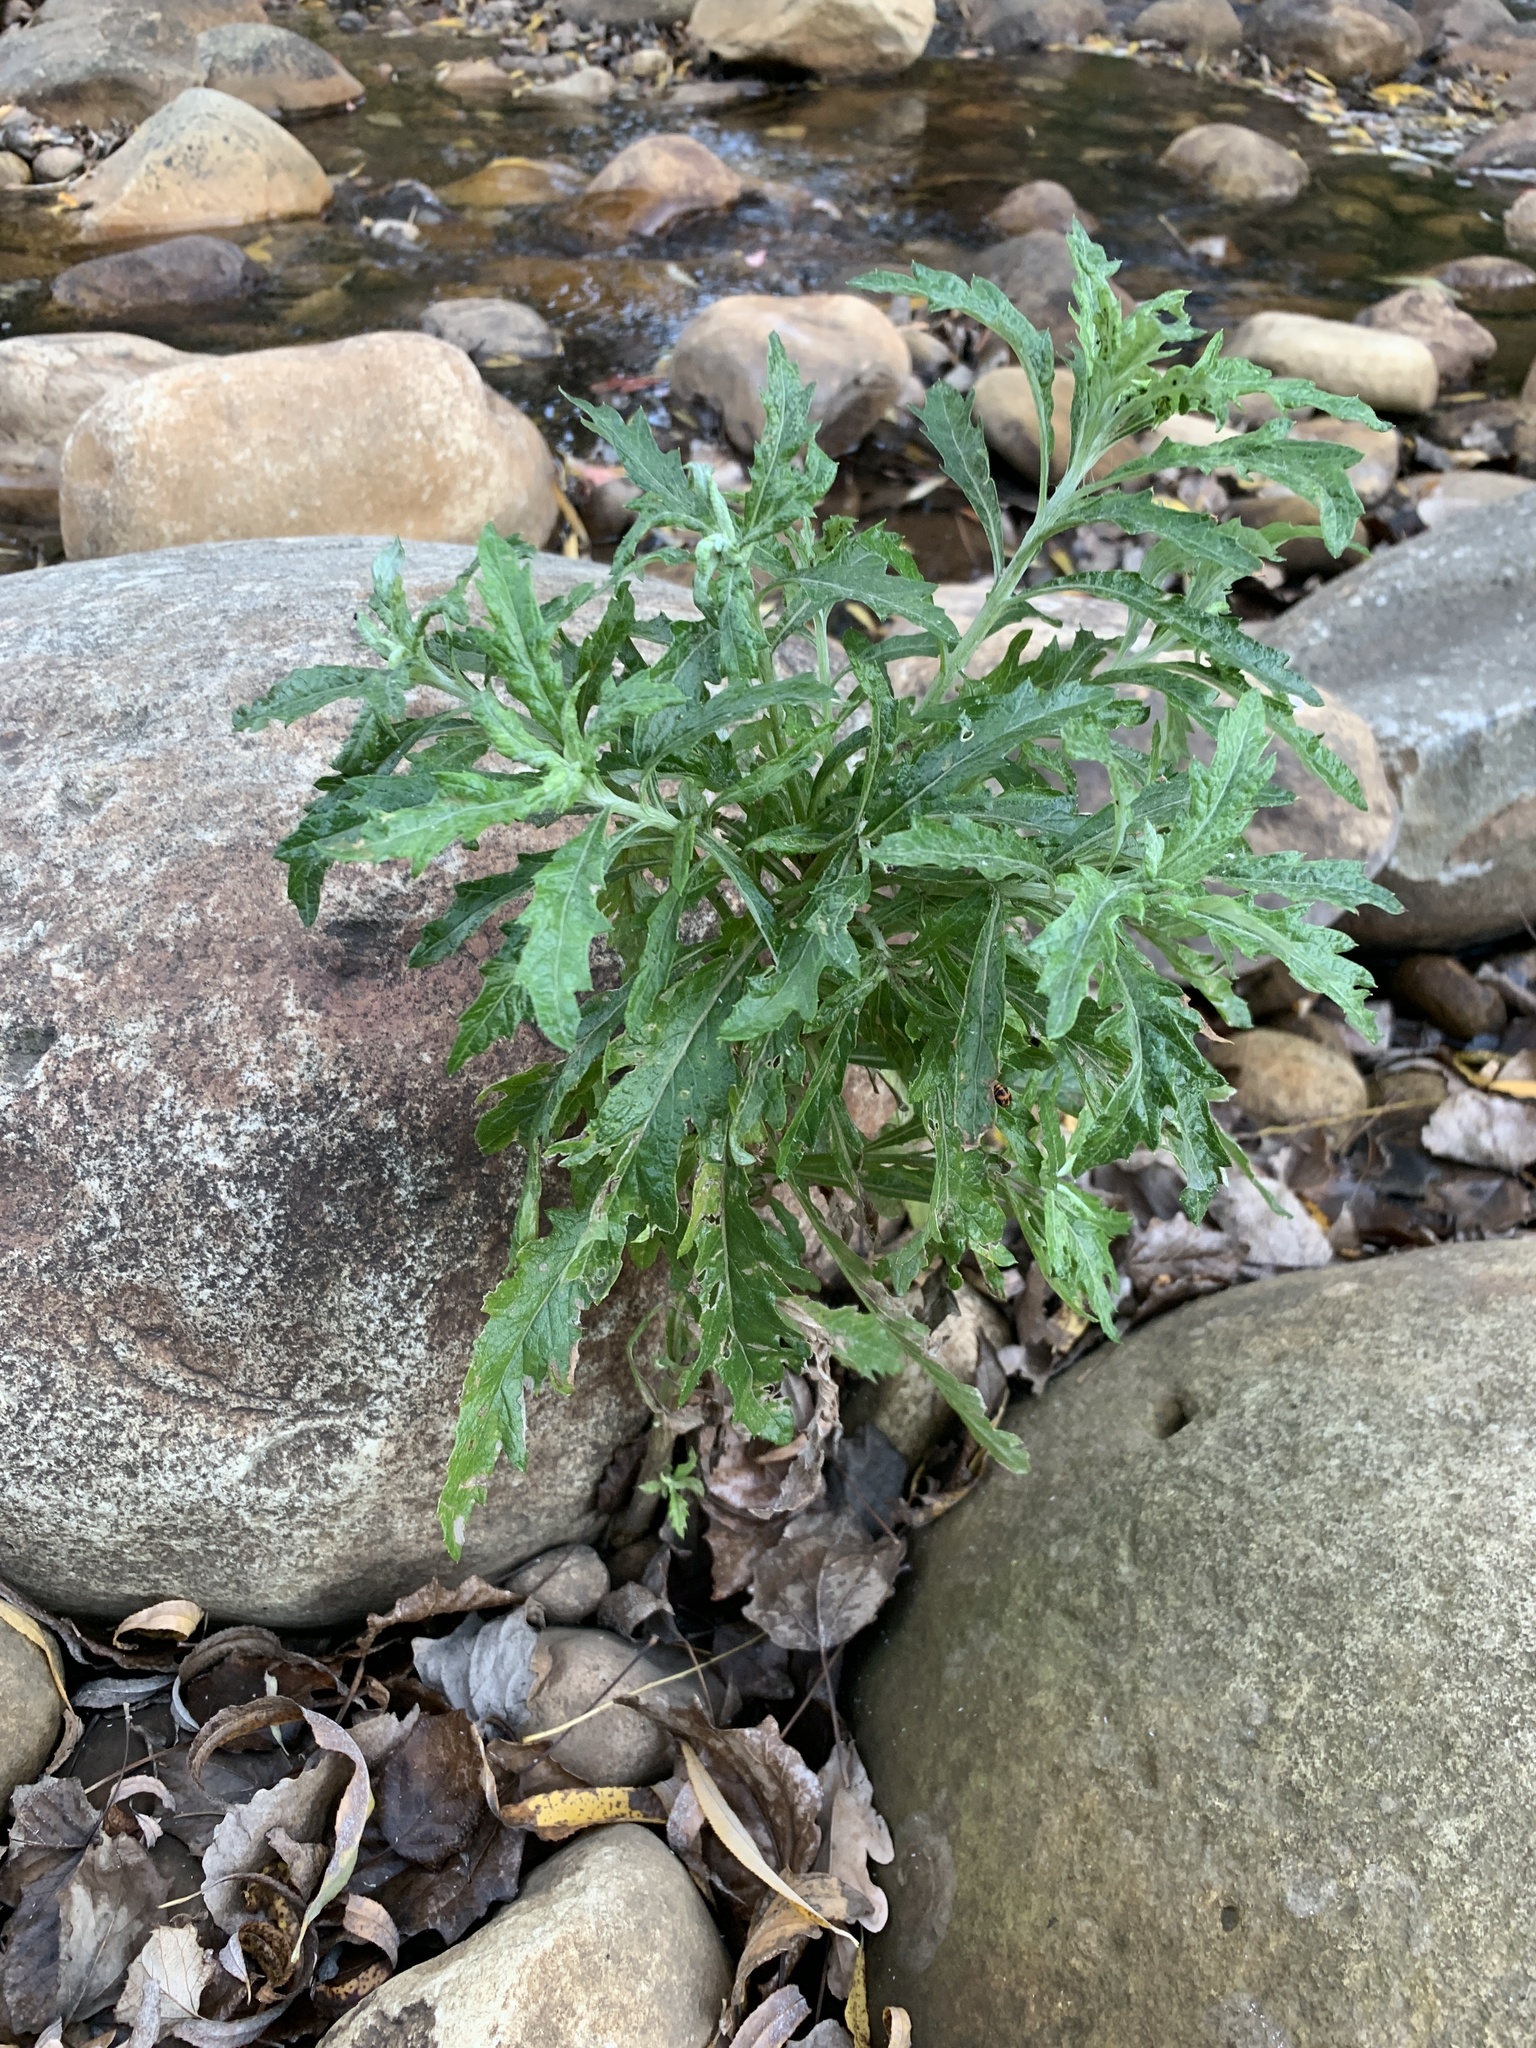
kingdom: Plantae
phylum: Tracheophyta
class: Magnoliopsida
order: Asterales
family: Asteraceae
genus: Senecio
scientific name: Senecio pterophorus
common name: Shoddy ragwort
